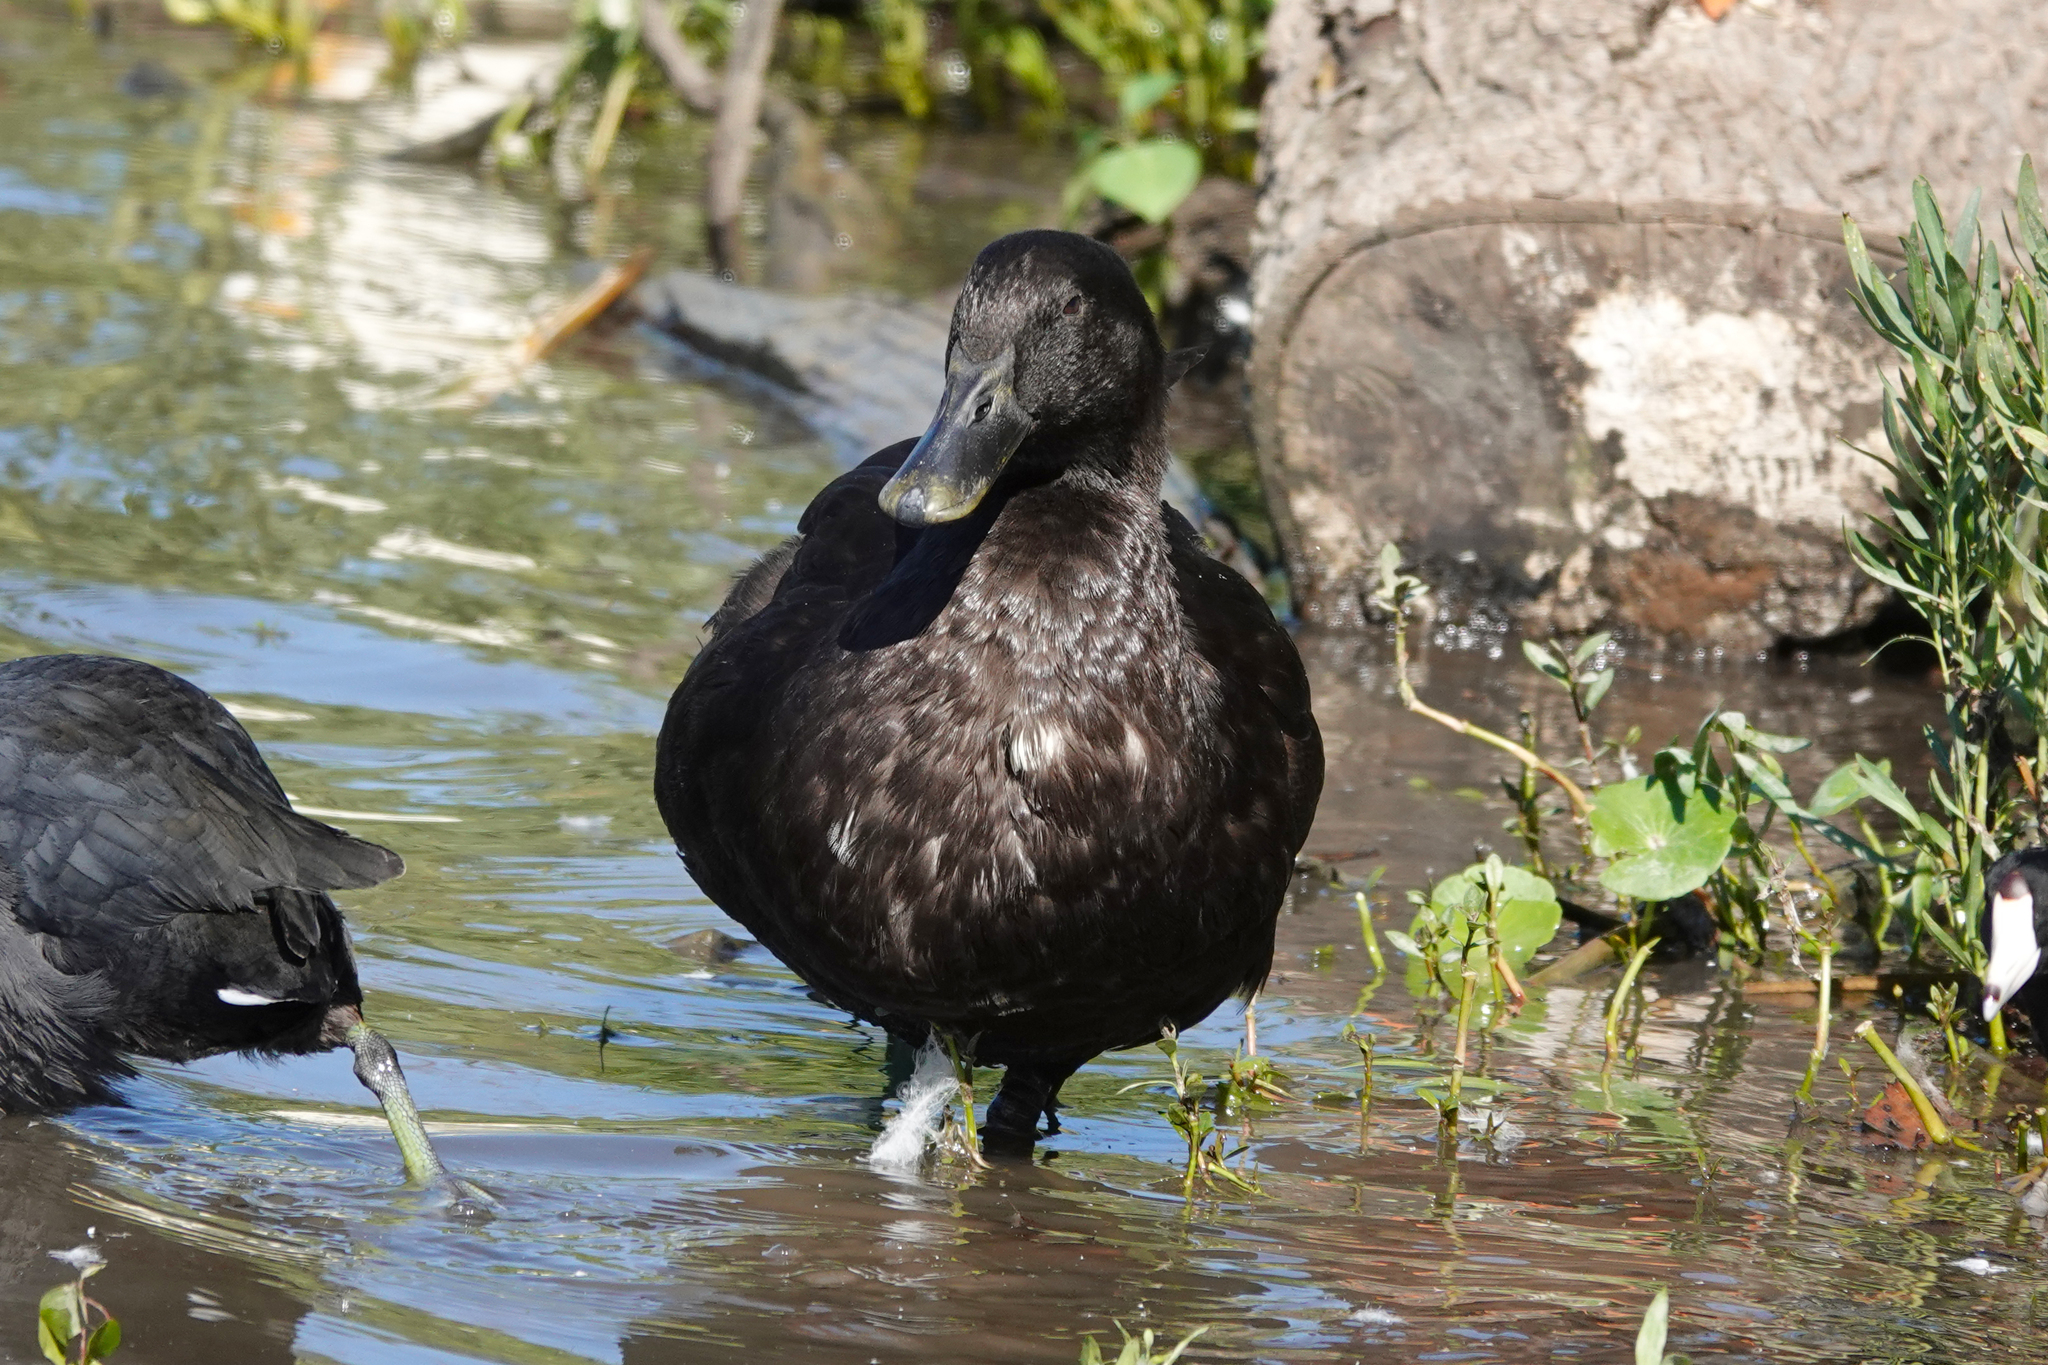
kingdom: Animalia
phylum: Chordata
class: Aves
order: Anseriformes
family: Anatidae
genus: Anas
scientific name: Anas platyrhynchos
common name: Mallard
